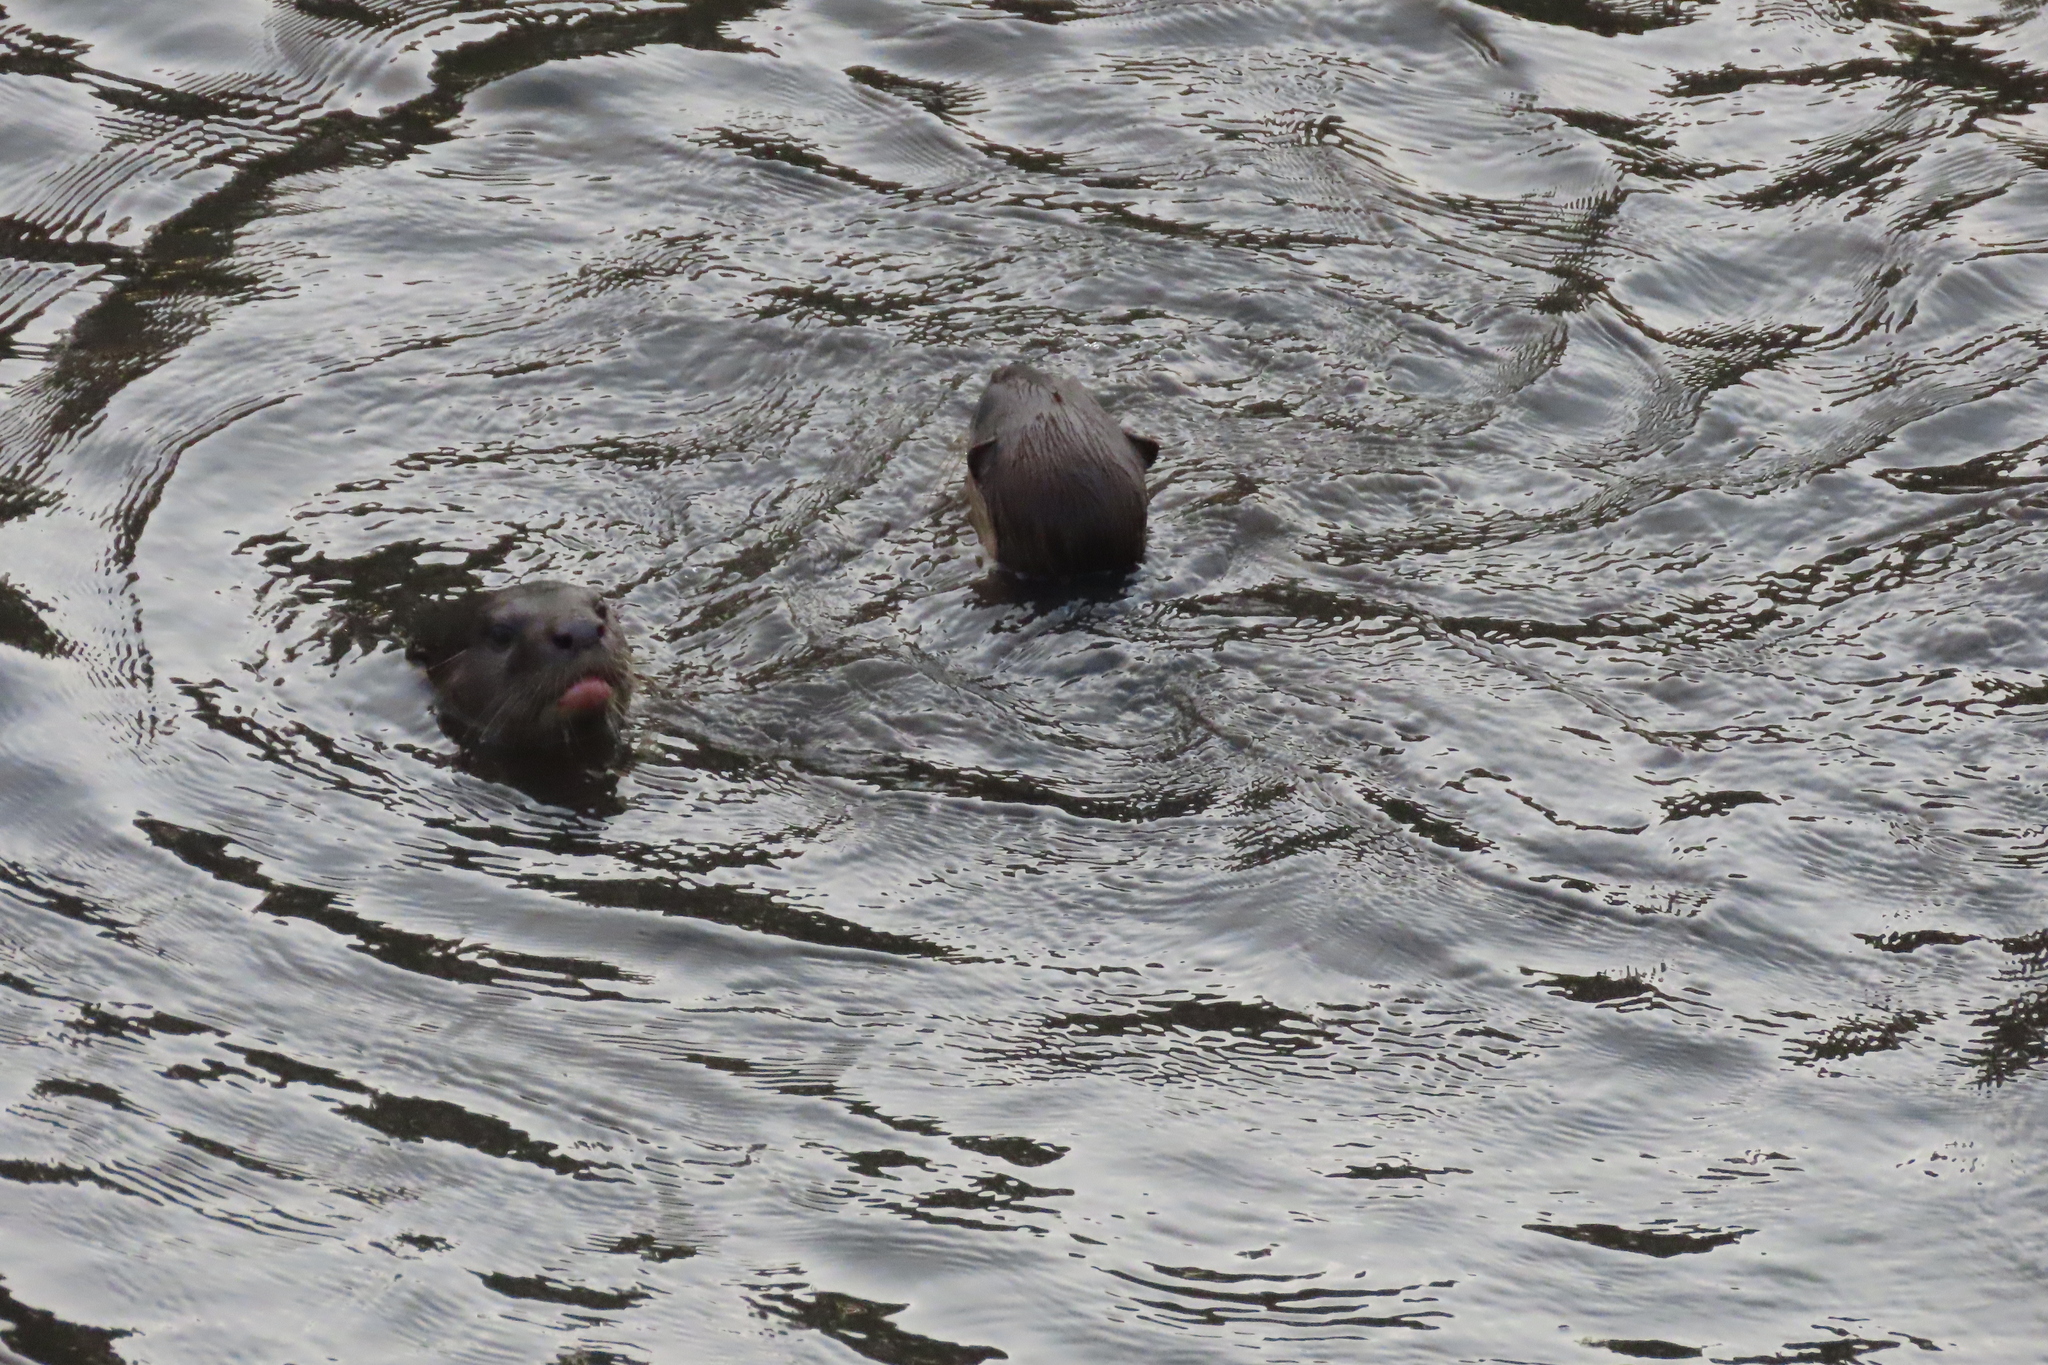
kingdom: Animalia
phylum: Chordata
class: Mammalia
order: Carnivora
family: Mustelidae
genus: Lutrogale
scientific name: Lutrogale perspicillata
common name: Smooth-coated otter
